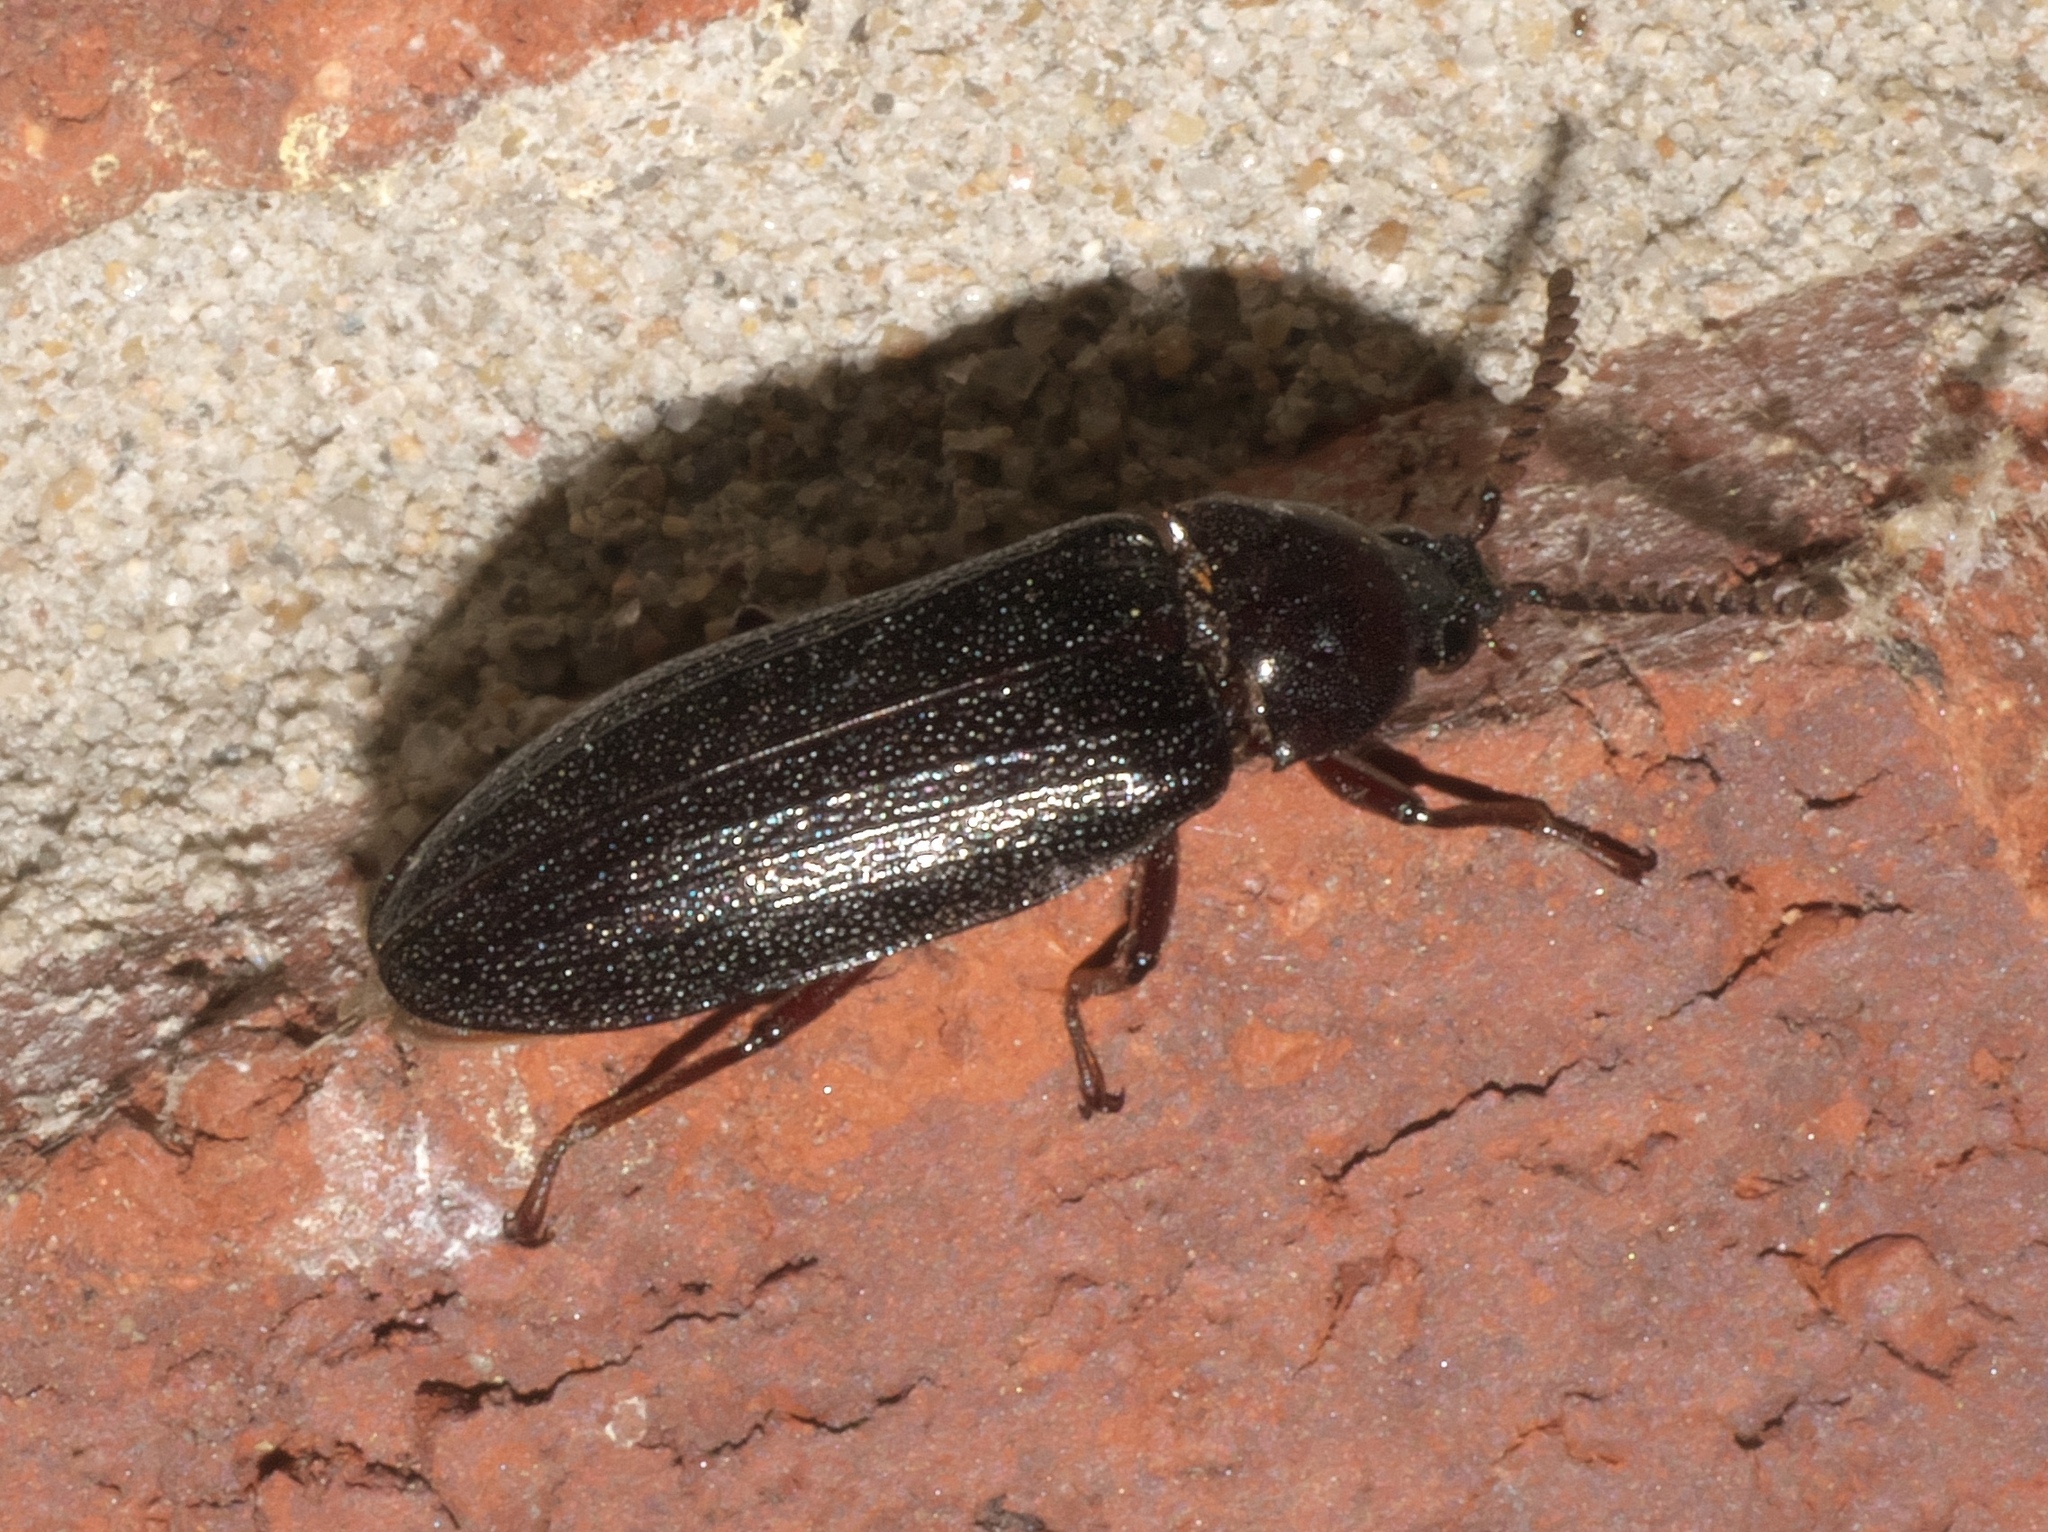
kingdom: Animalia
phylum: Arthropoda
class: Insecta
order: Coleoptera
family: Callirhipidae
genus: Zenoa
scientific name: Zenoa picea
